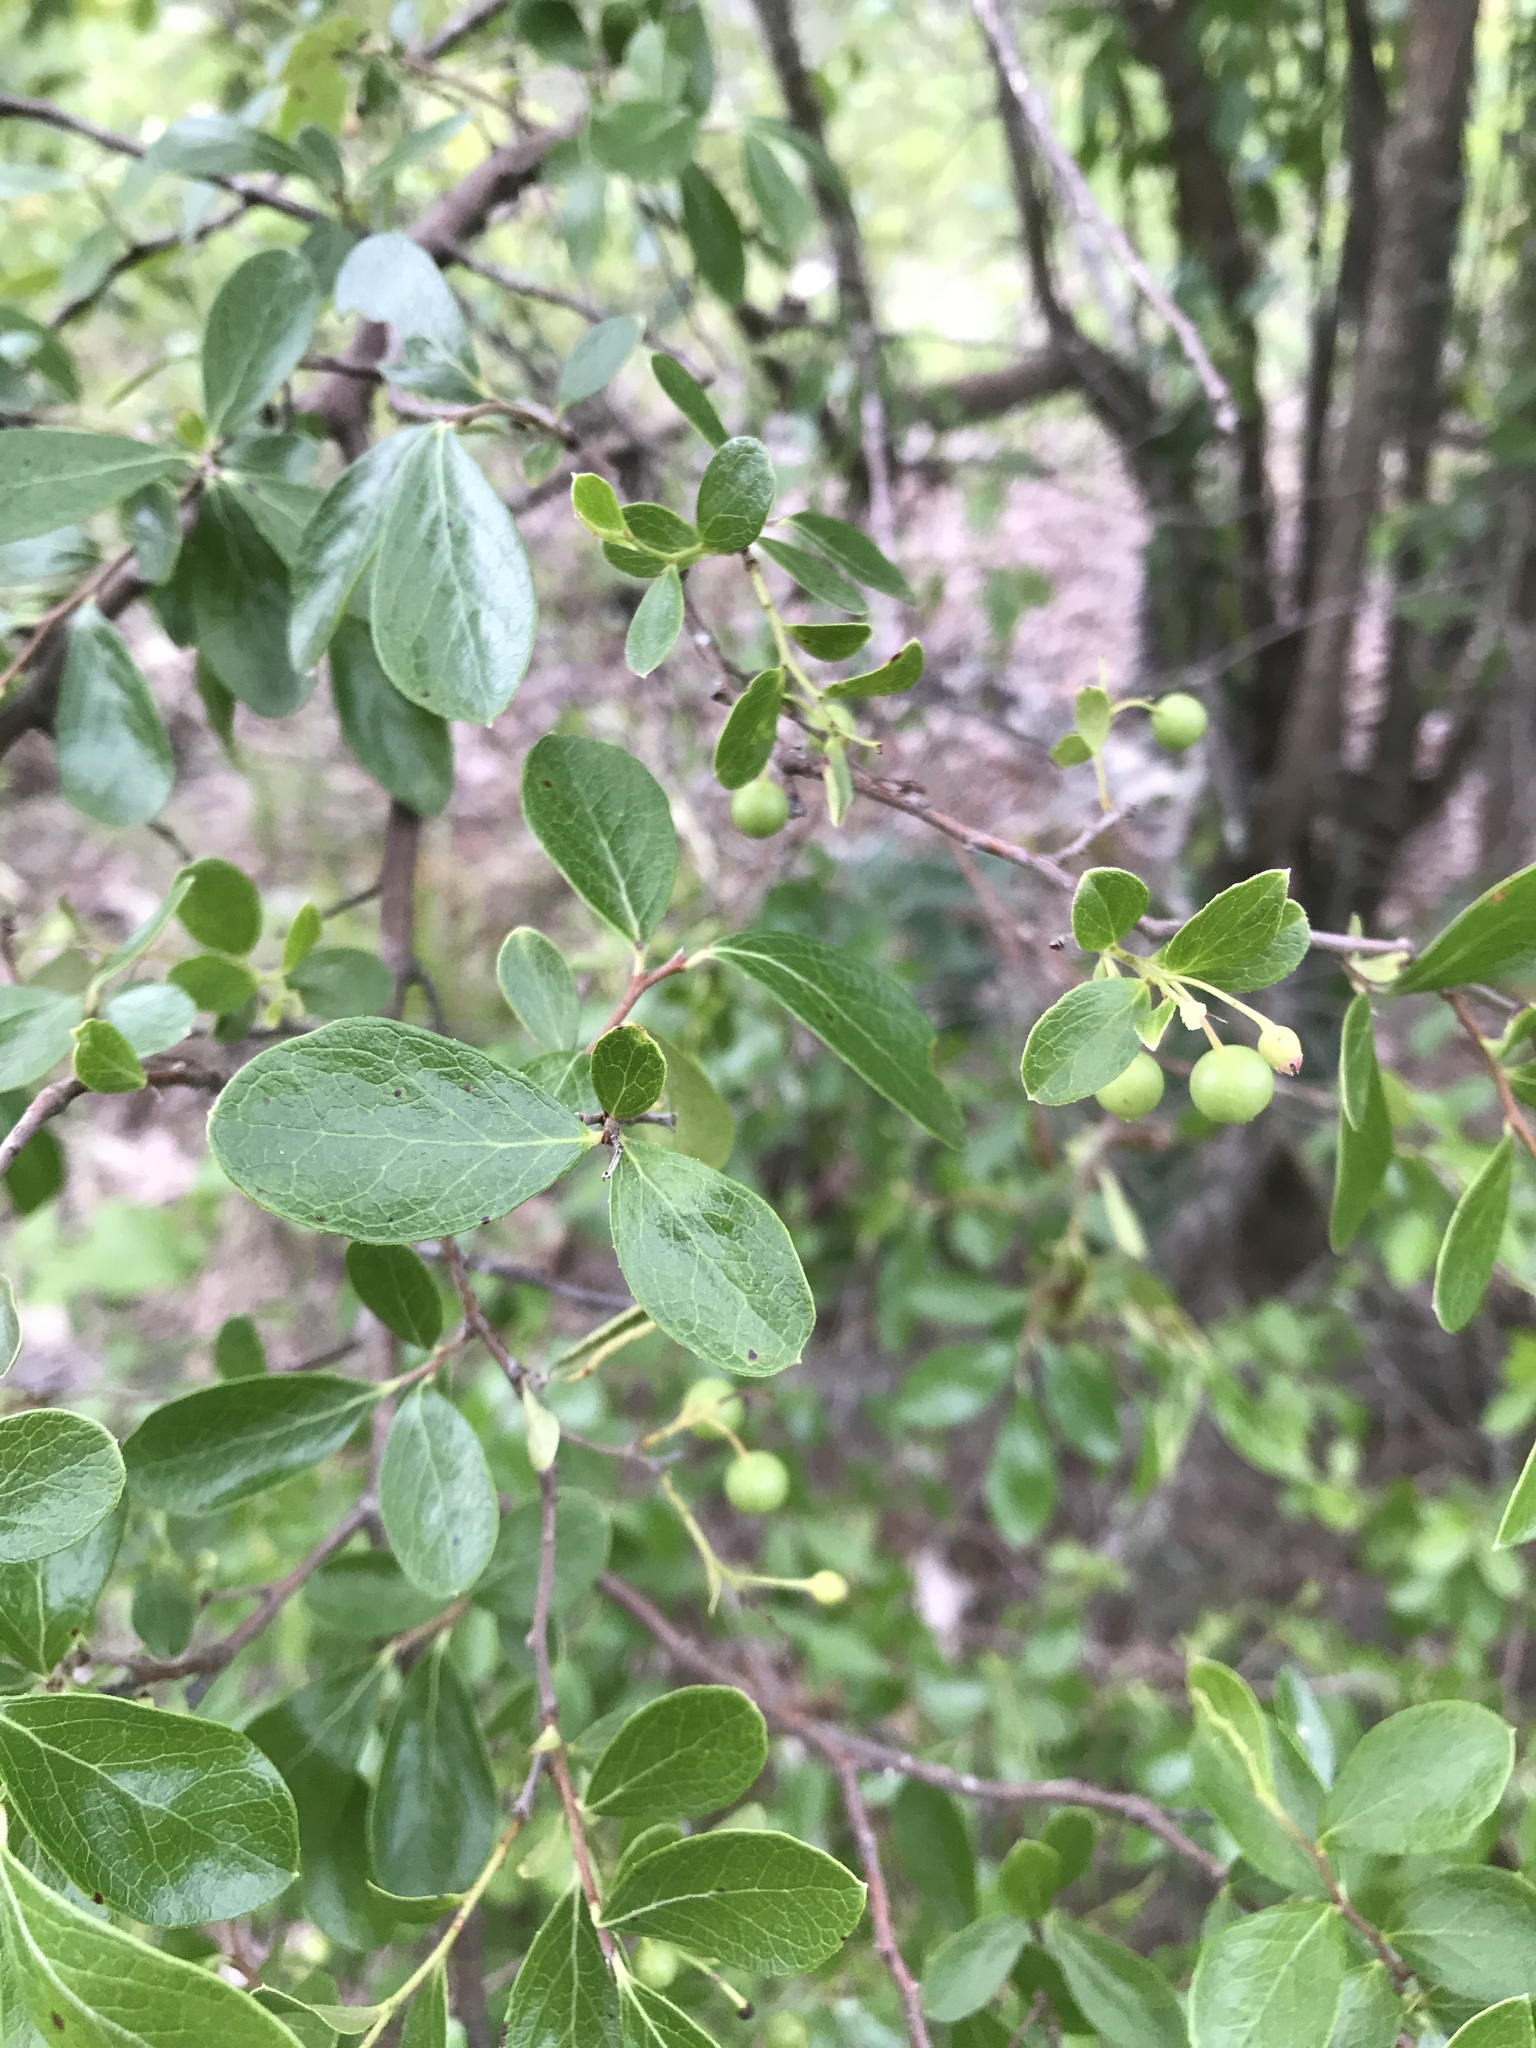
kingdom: Plantae
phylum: Tracheophyta
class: Magnoliopsida
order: Ericales
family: Ericaceae
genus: Vaccinium
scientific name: Vaccinium arboreum
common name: Farkleberry
